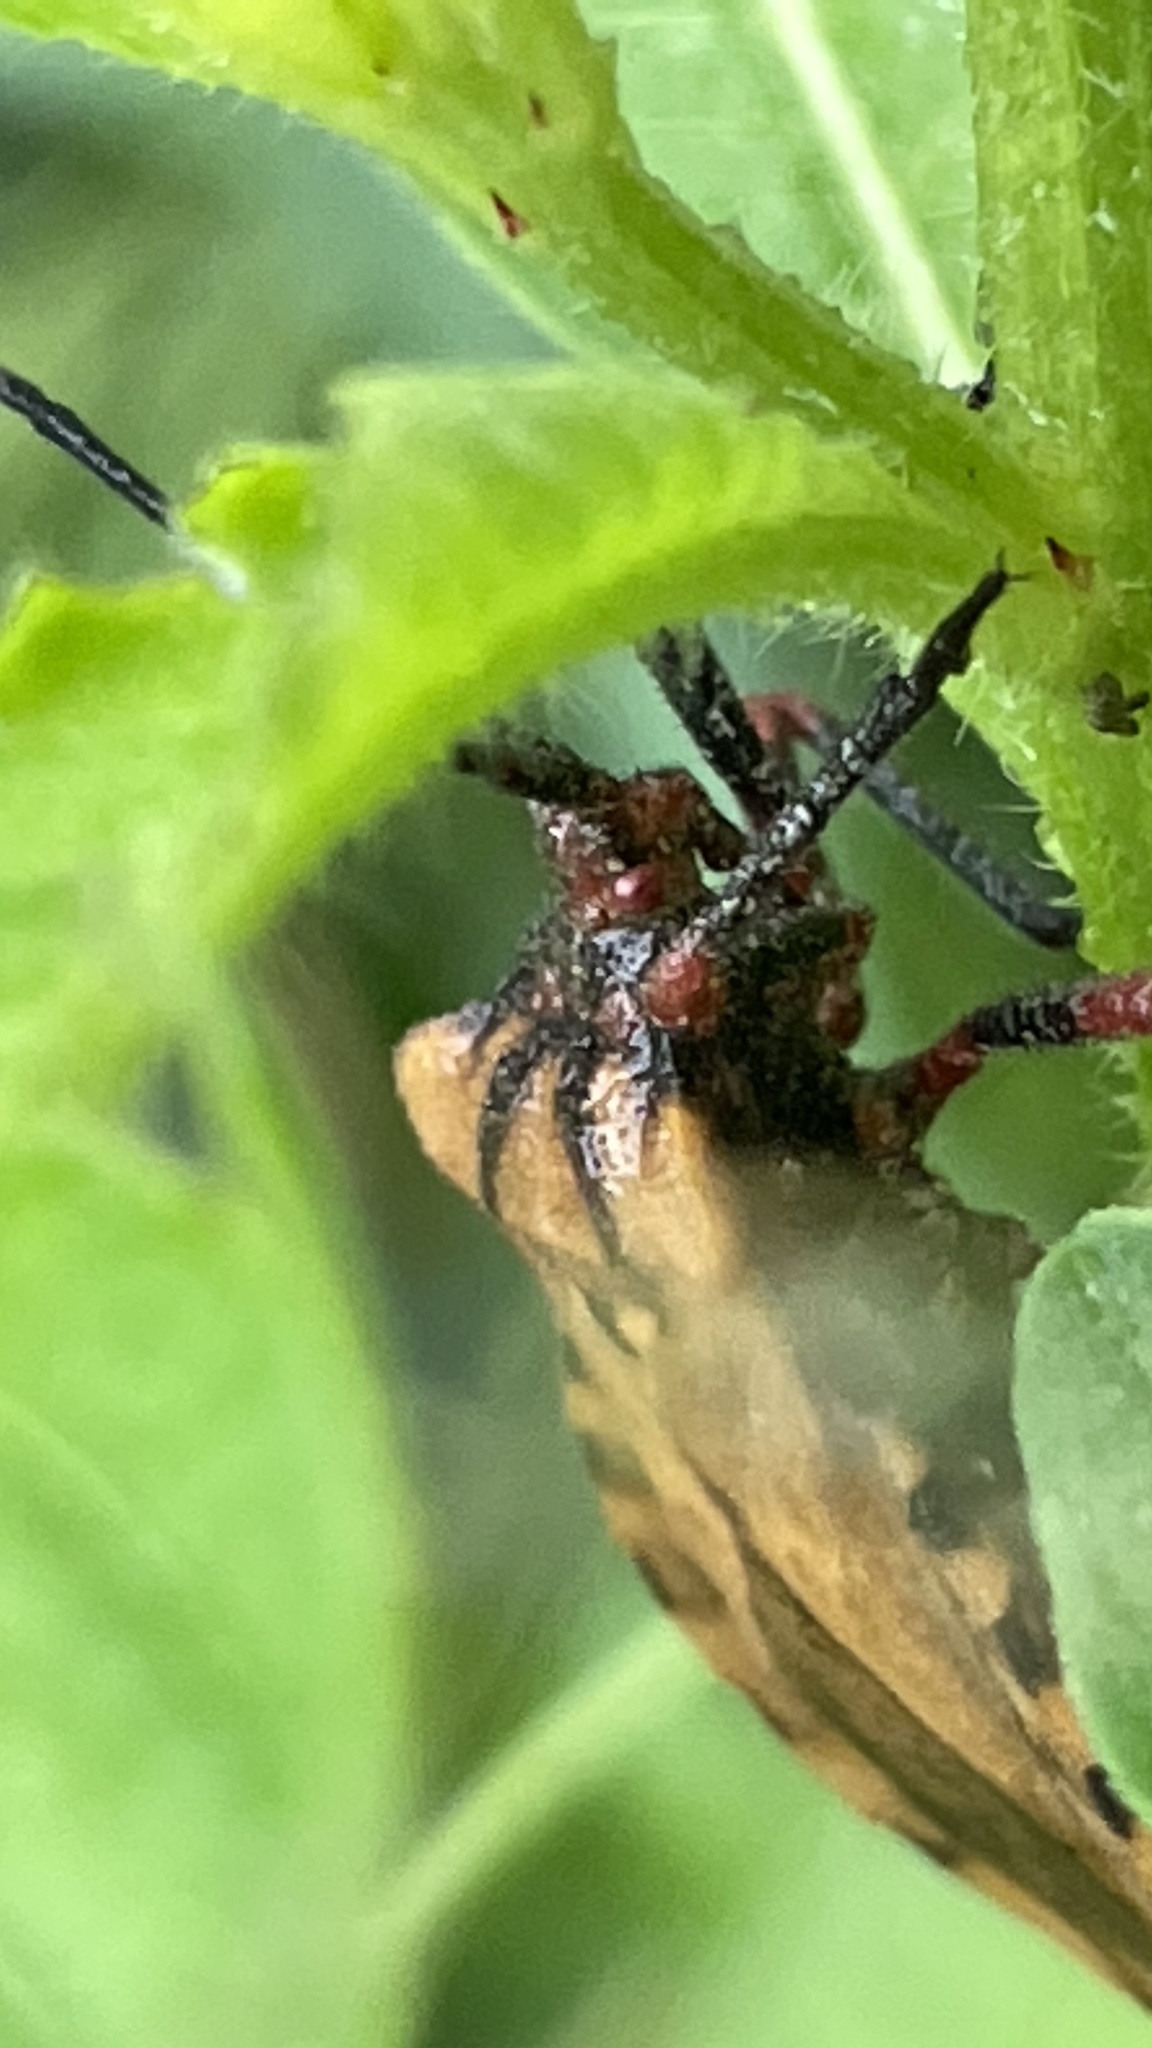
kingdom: Animalia
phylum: Arthropoda
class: Insecta
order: Hemiptera
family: Coreidae
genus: Spartocera
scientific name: Spartocera fusca
